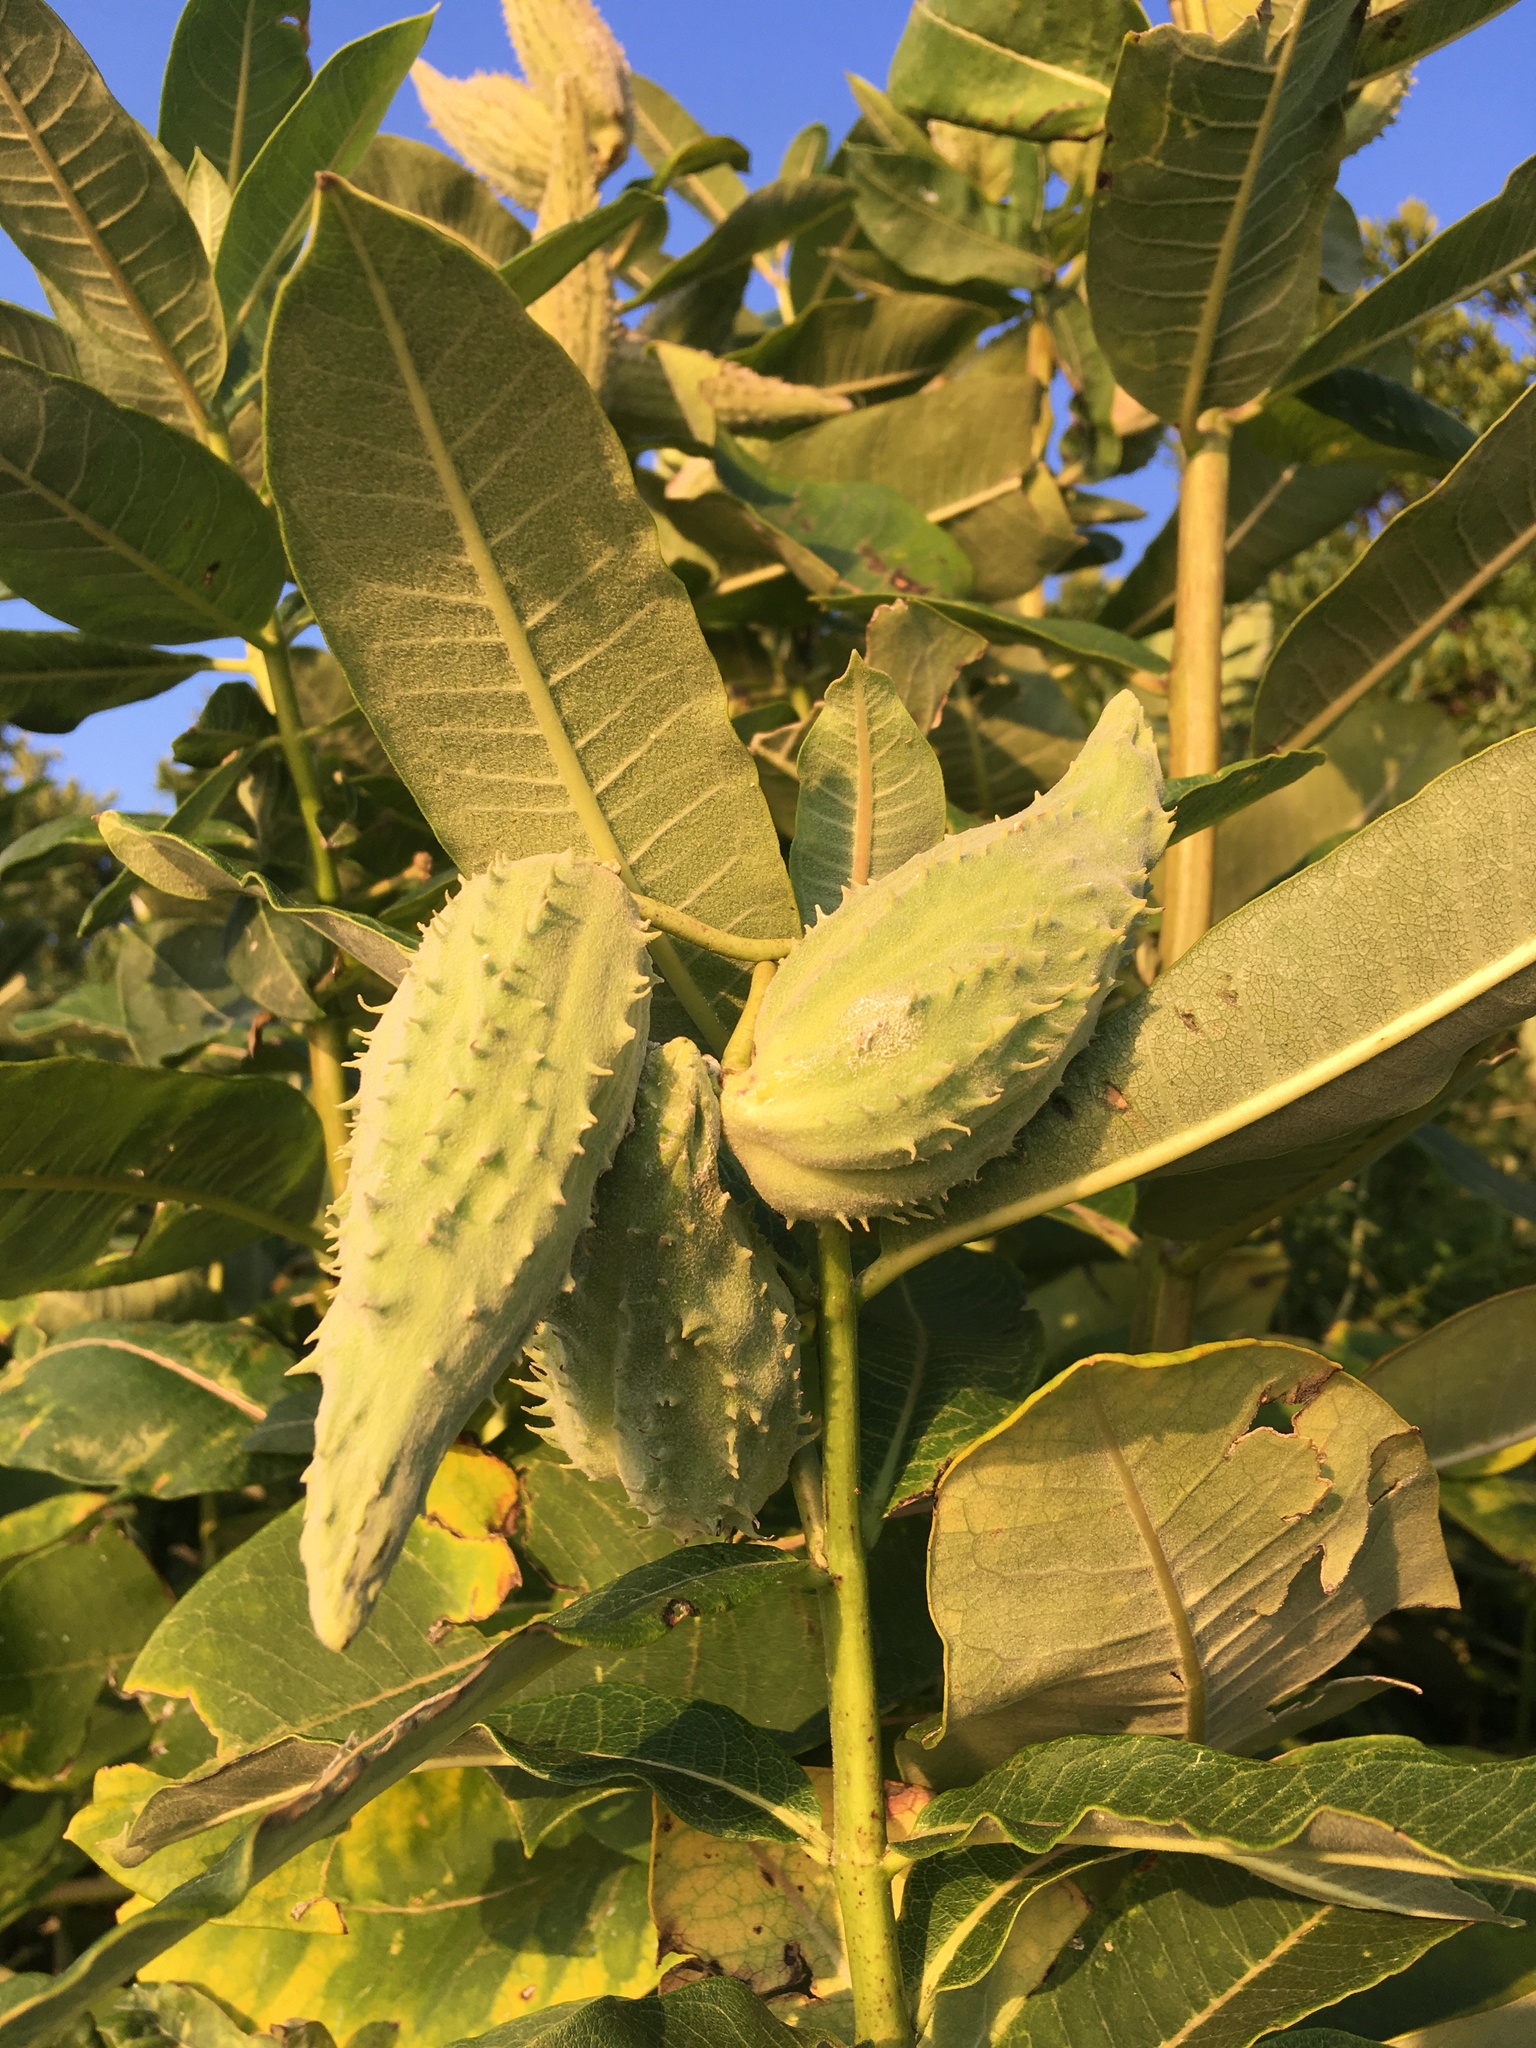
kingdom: Plantae
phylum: Tracheophyta
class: Magnoliopsida
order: Gentianales
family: Apocynaceae
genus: Asclepias
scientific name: Asclepias syriaca
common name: Common milkweed
